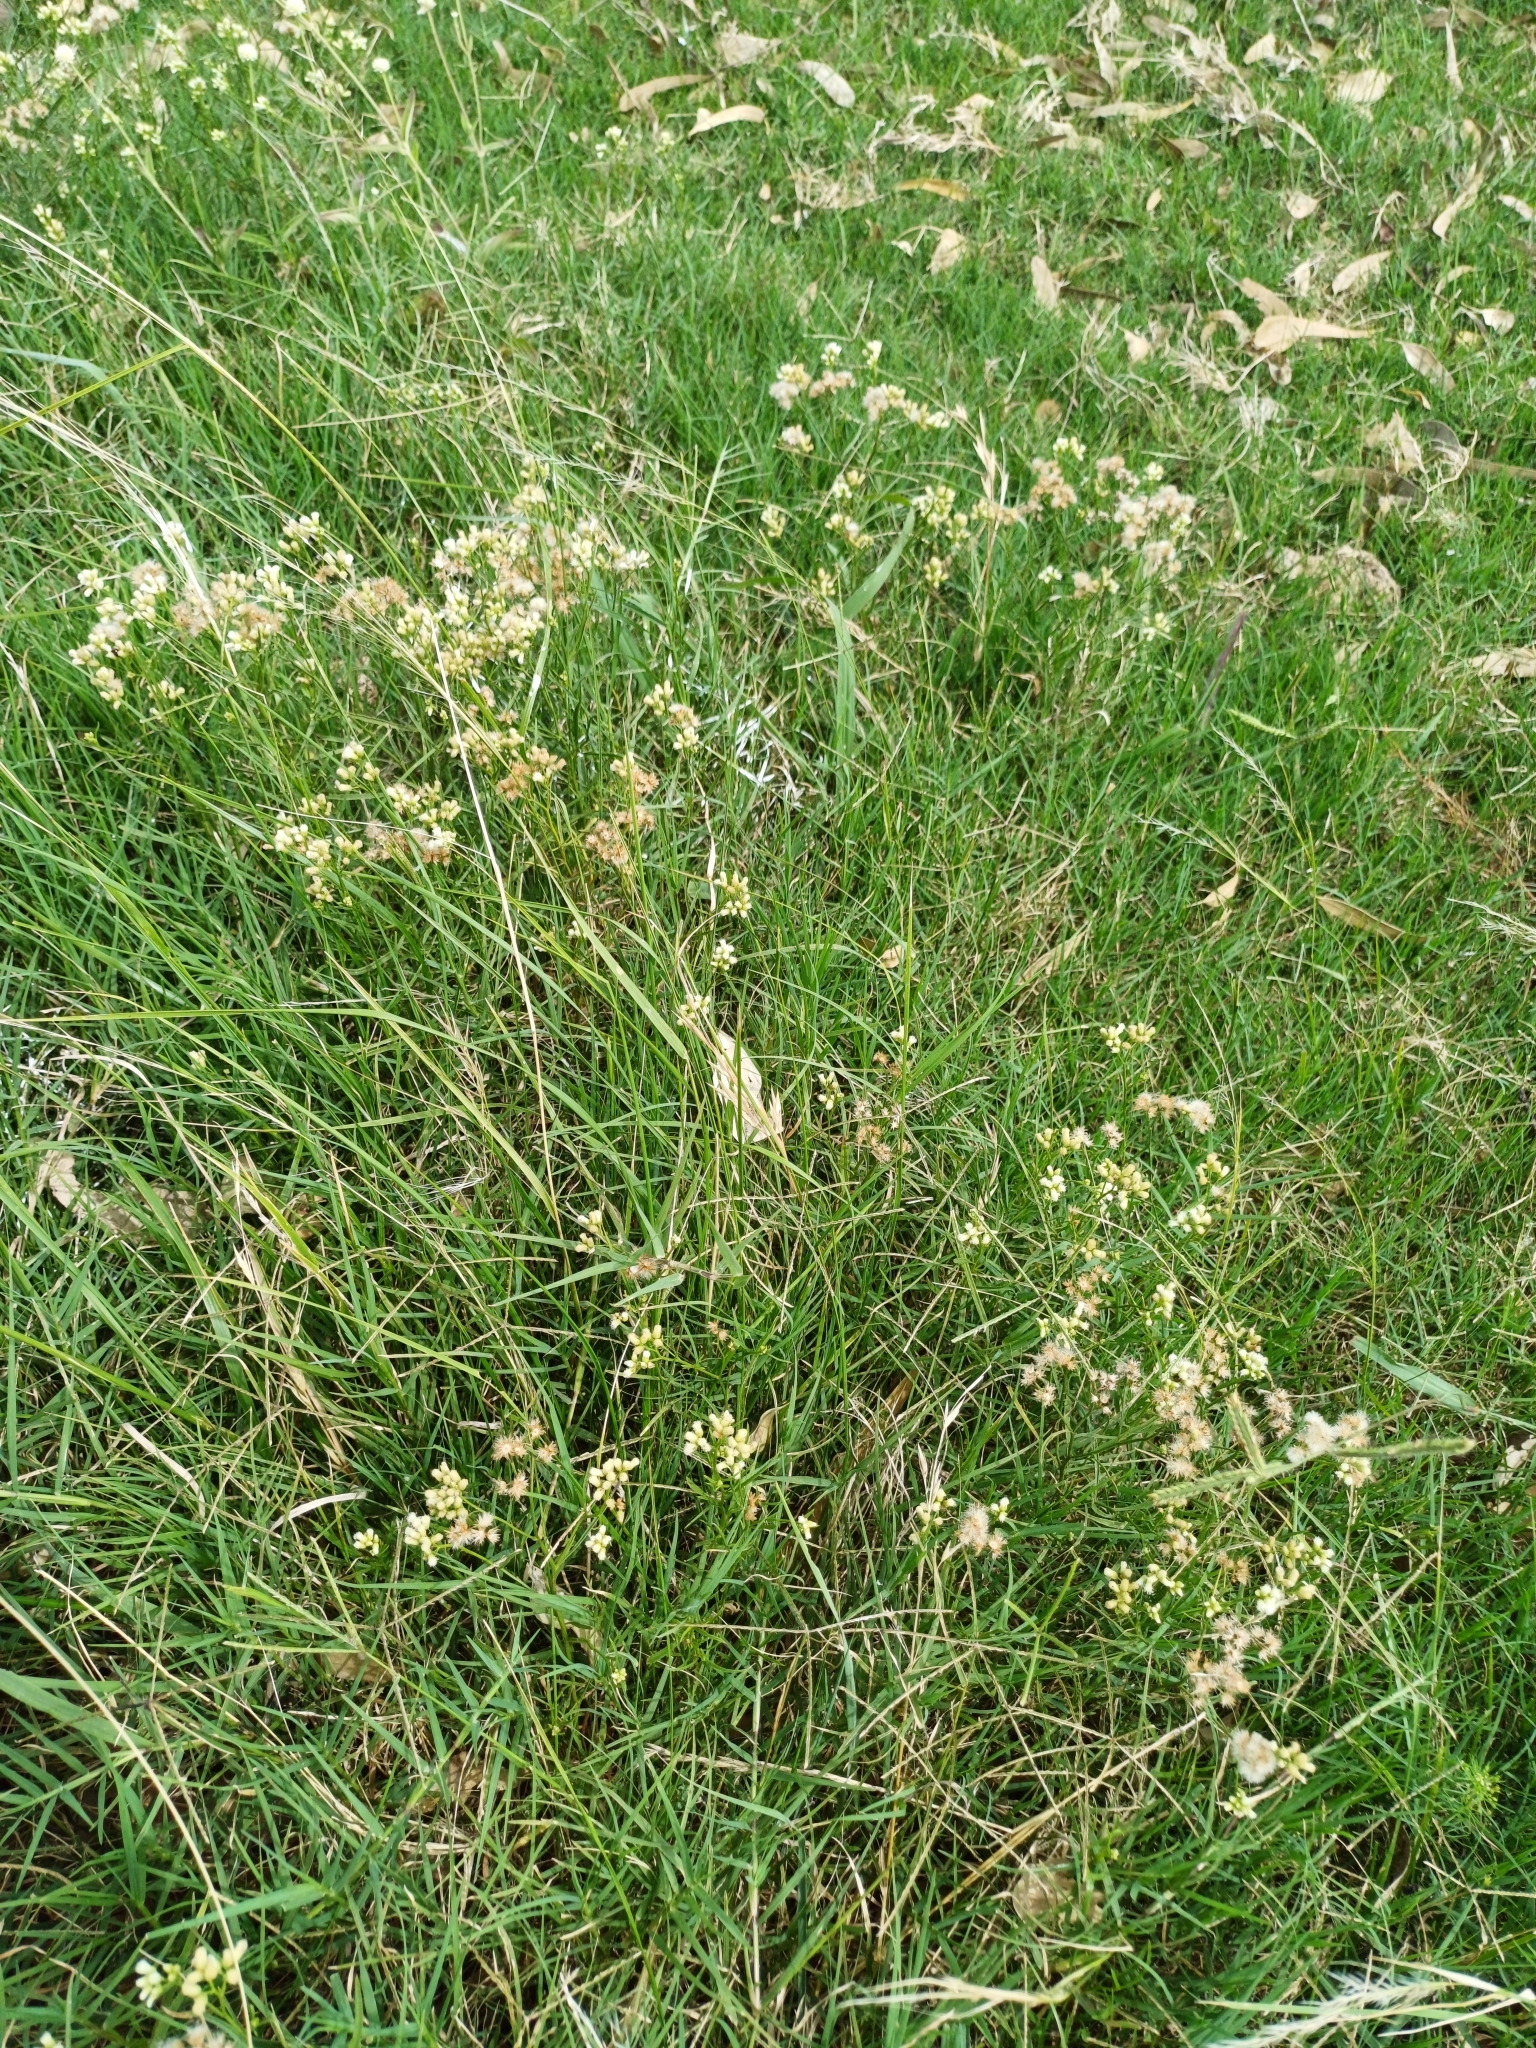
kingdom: Plantae
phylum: Tracheophyta
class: Magnoliopsida
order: Asterales
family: Asteraceae
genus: Baccharis
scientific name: Baccharis glutinosa
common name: Saltmarsh baccharis
